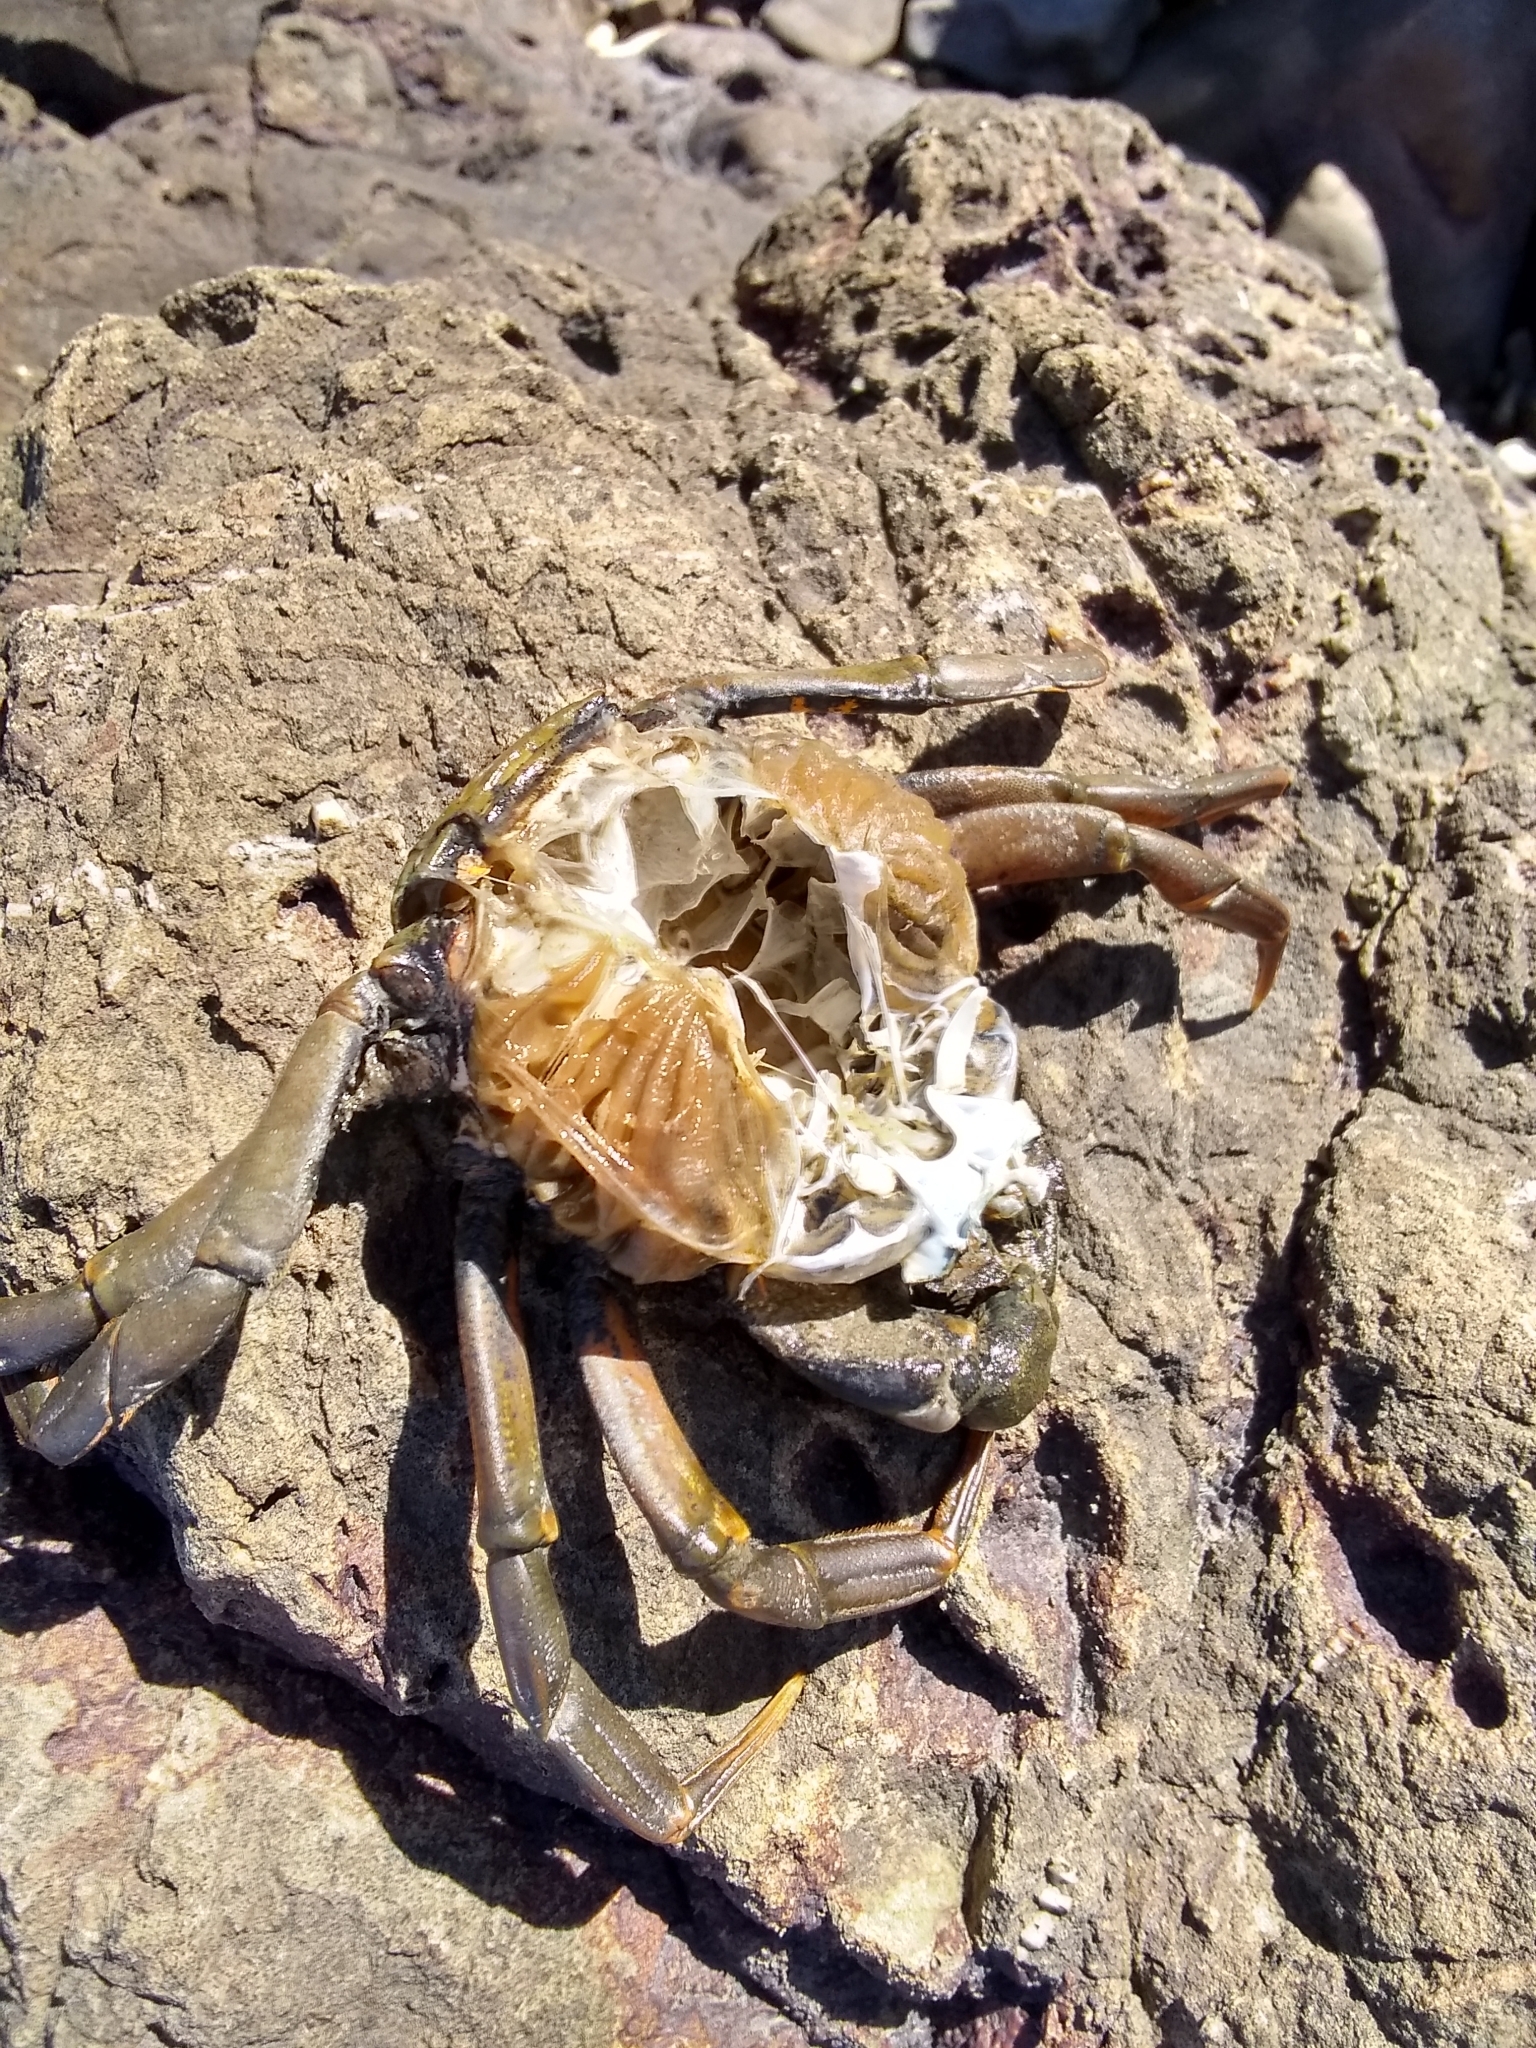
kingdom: Animalia
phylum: Arthropoda
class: Malacostraca
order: Decapoda
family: Carcinidae
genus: Carcinus
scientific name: Carcinus maenas
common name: European green crab
